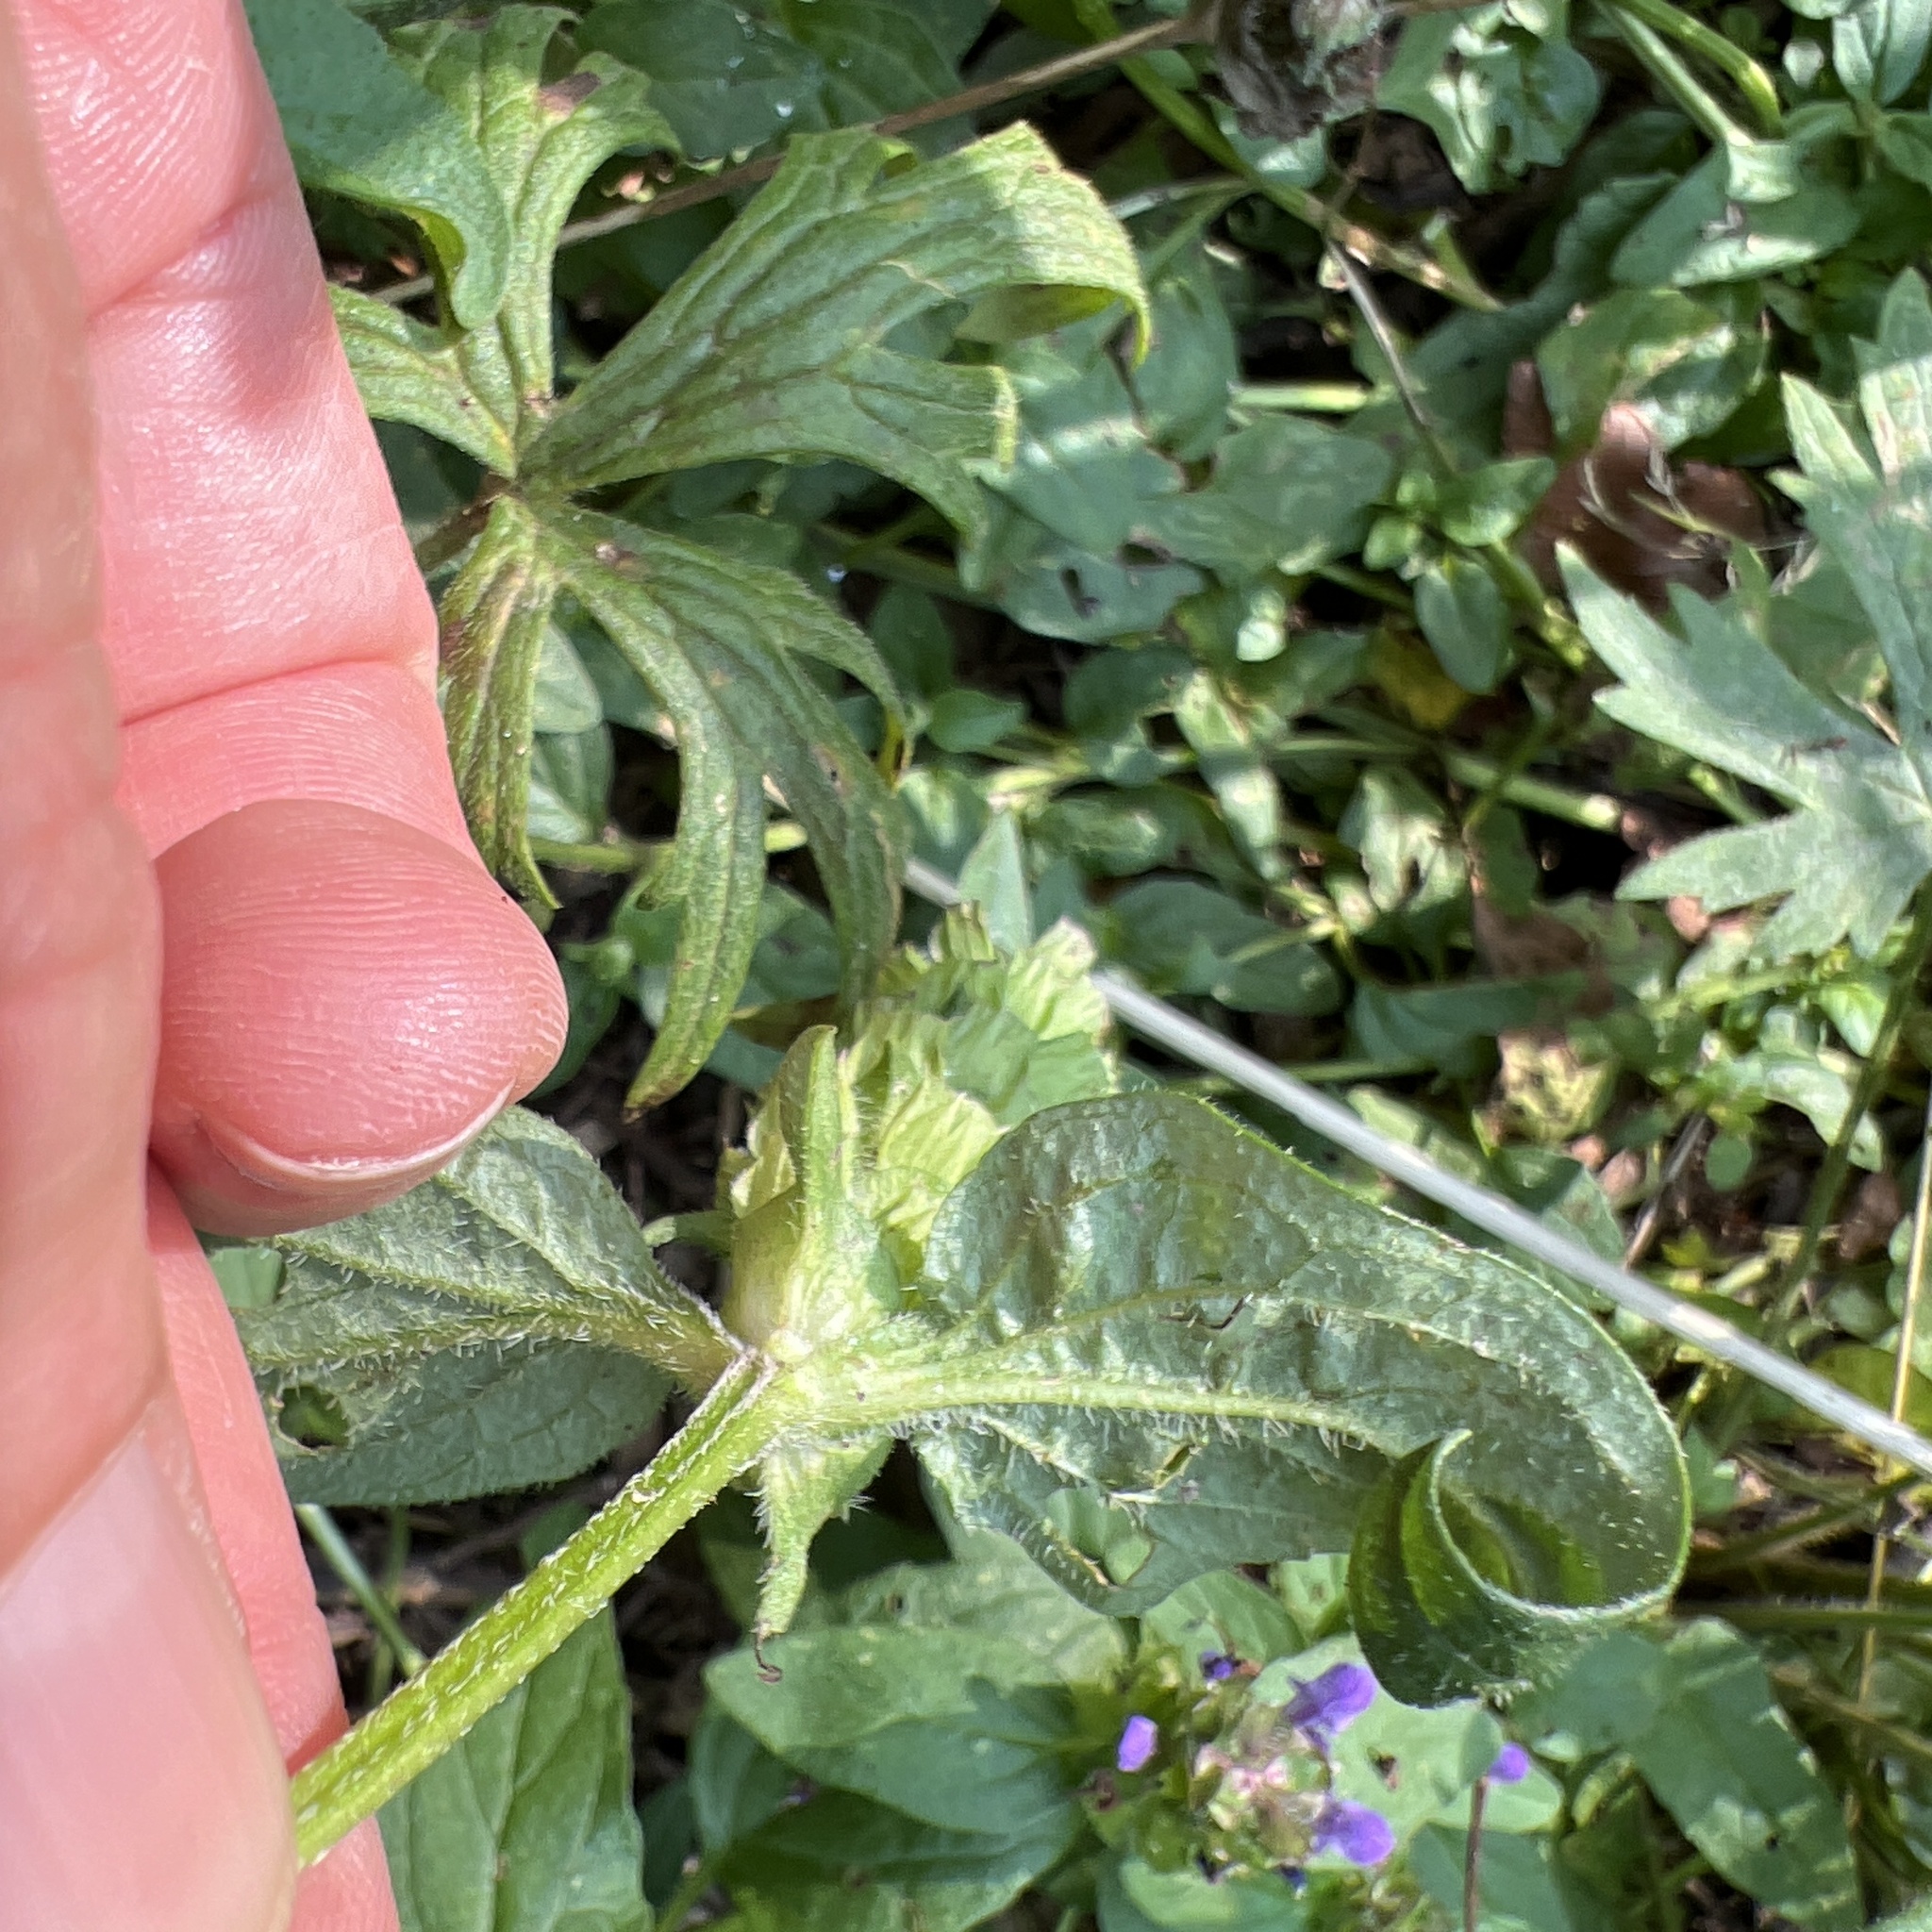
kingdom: Plantae
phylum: Tracheophyta
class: Magnoliopsida
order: Lamiales
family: Lamiaceae
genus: Prunella
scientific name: Prunella vulgaris
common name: Heal-all
